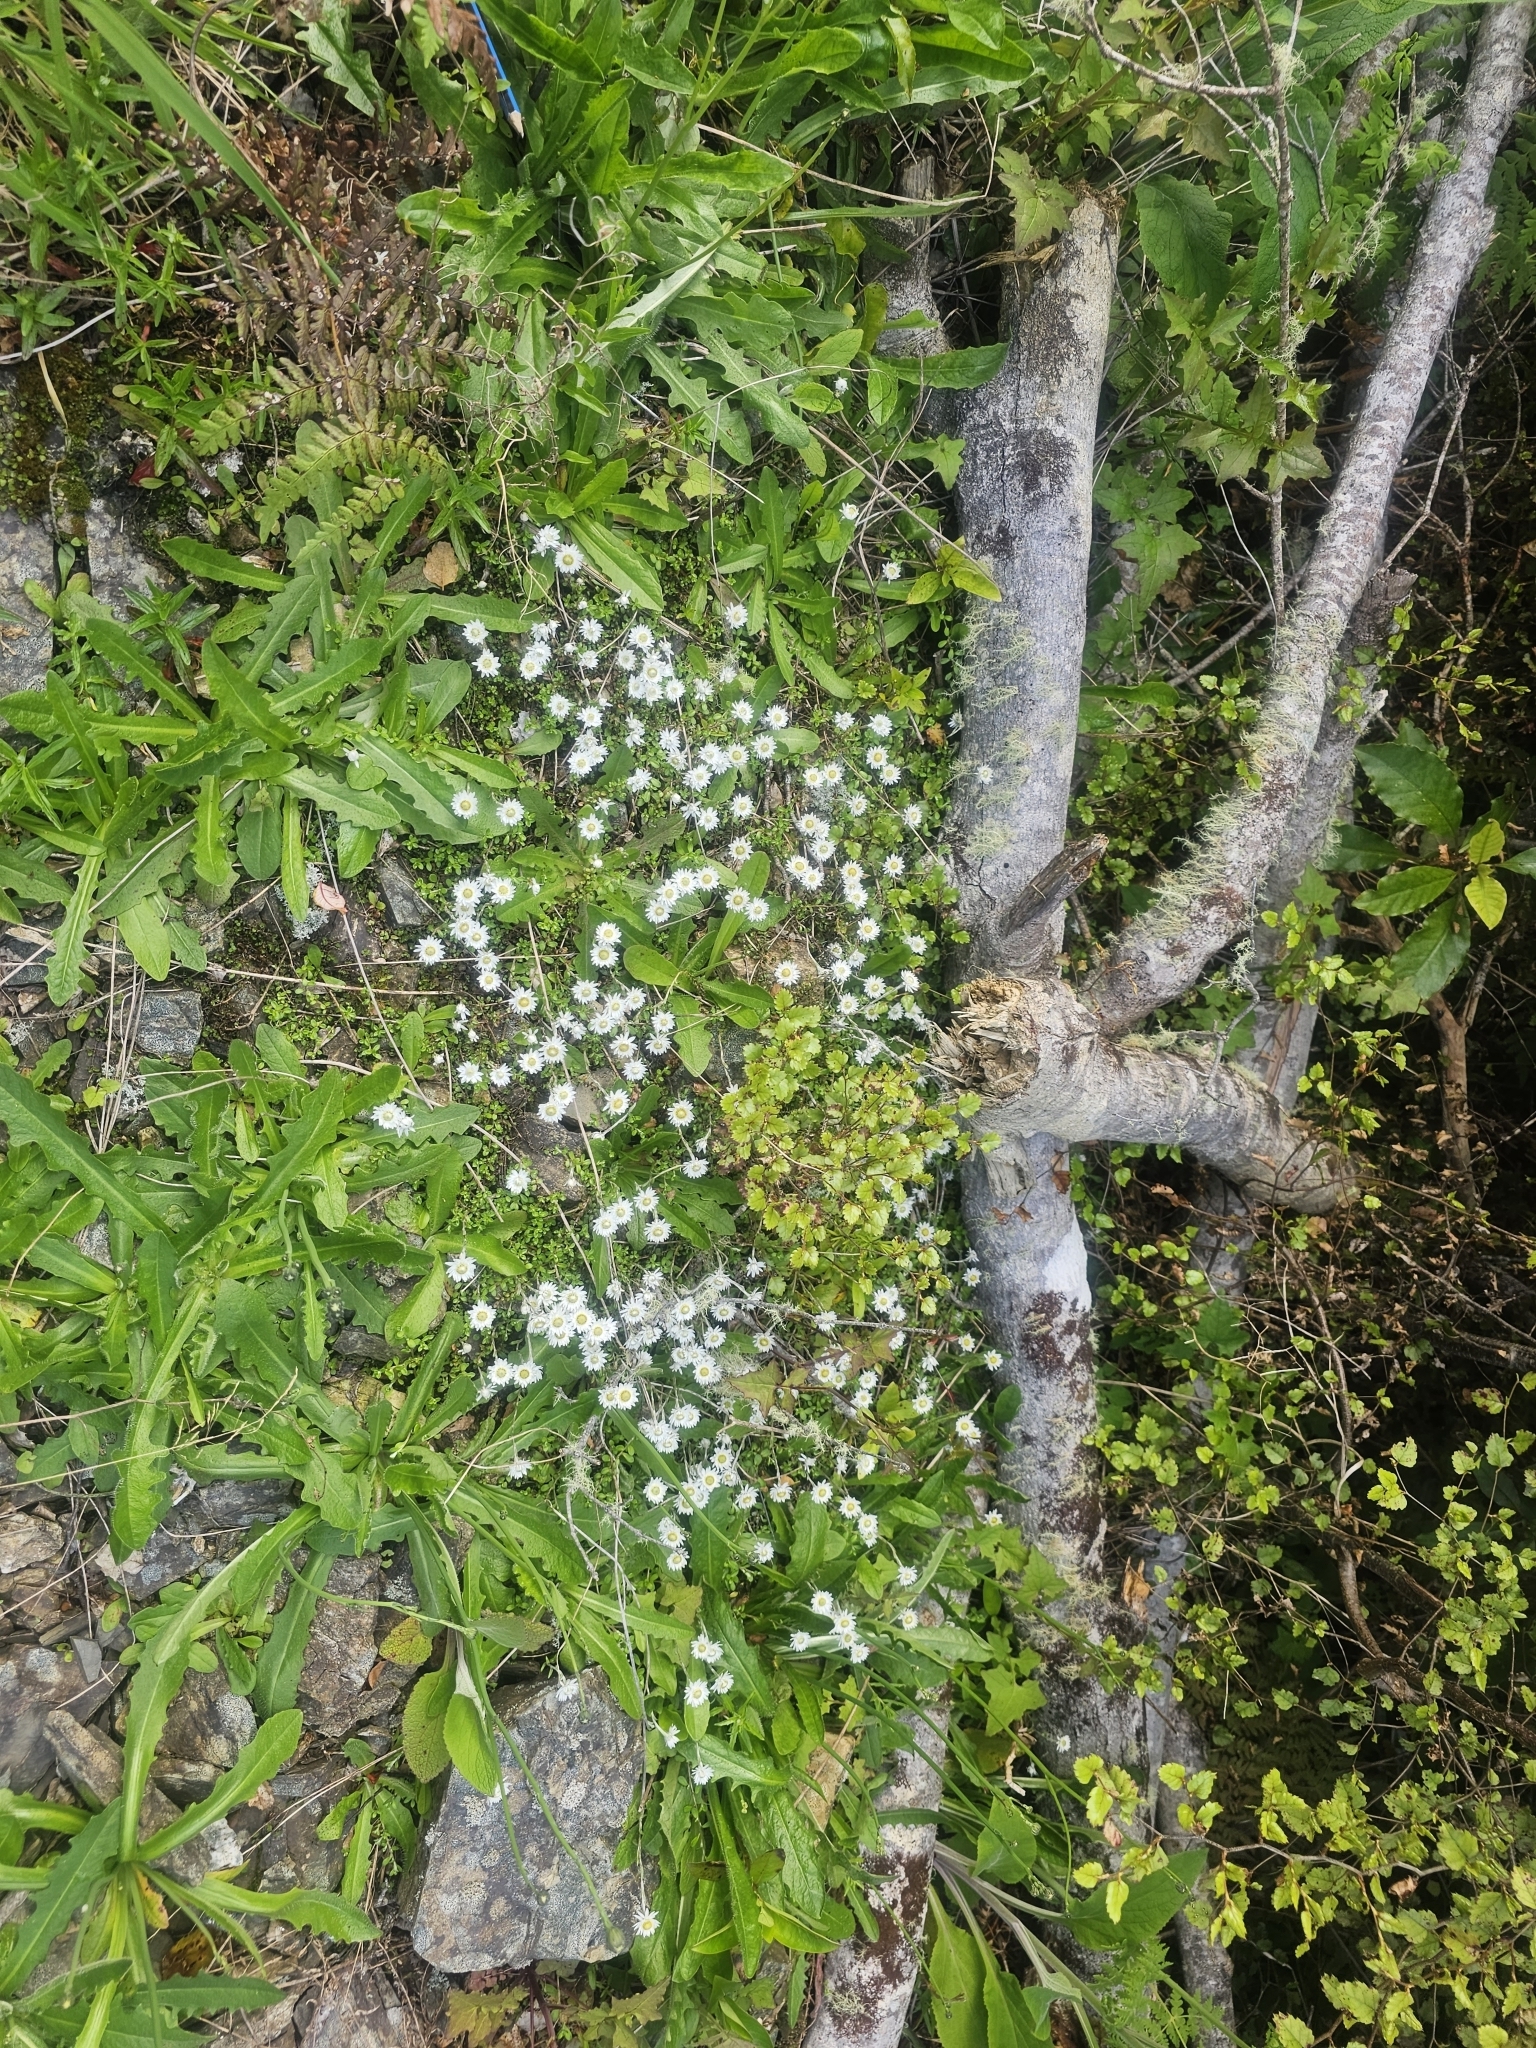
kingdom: Plantae
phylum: Tracheophyta
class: Magnoliopsida
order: Asterales
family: Asteraceae
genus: Anaphalioides
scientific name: Anaphalioides bellidioides
